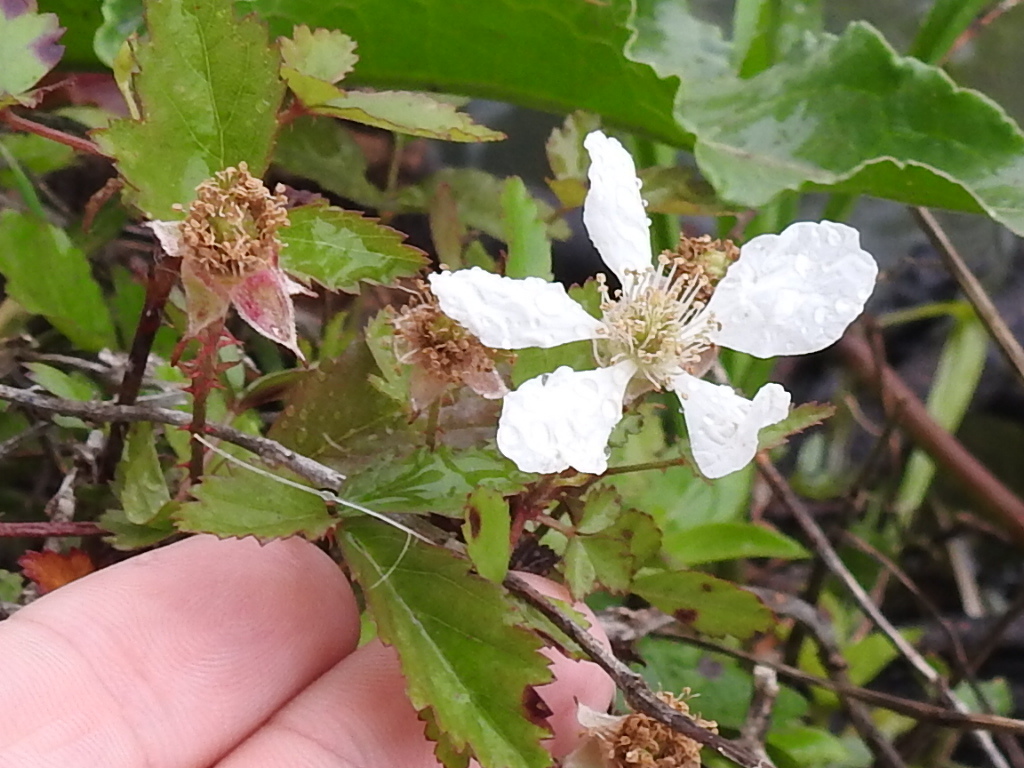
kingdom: Plantae
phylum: Tracheophyta
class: Magnoliopsida
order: Rosales
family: Rosaceae
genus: Rubus
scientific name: Rubus trivialis
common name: Southern dewberry
